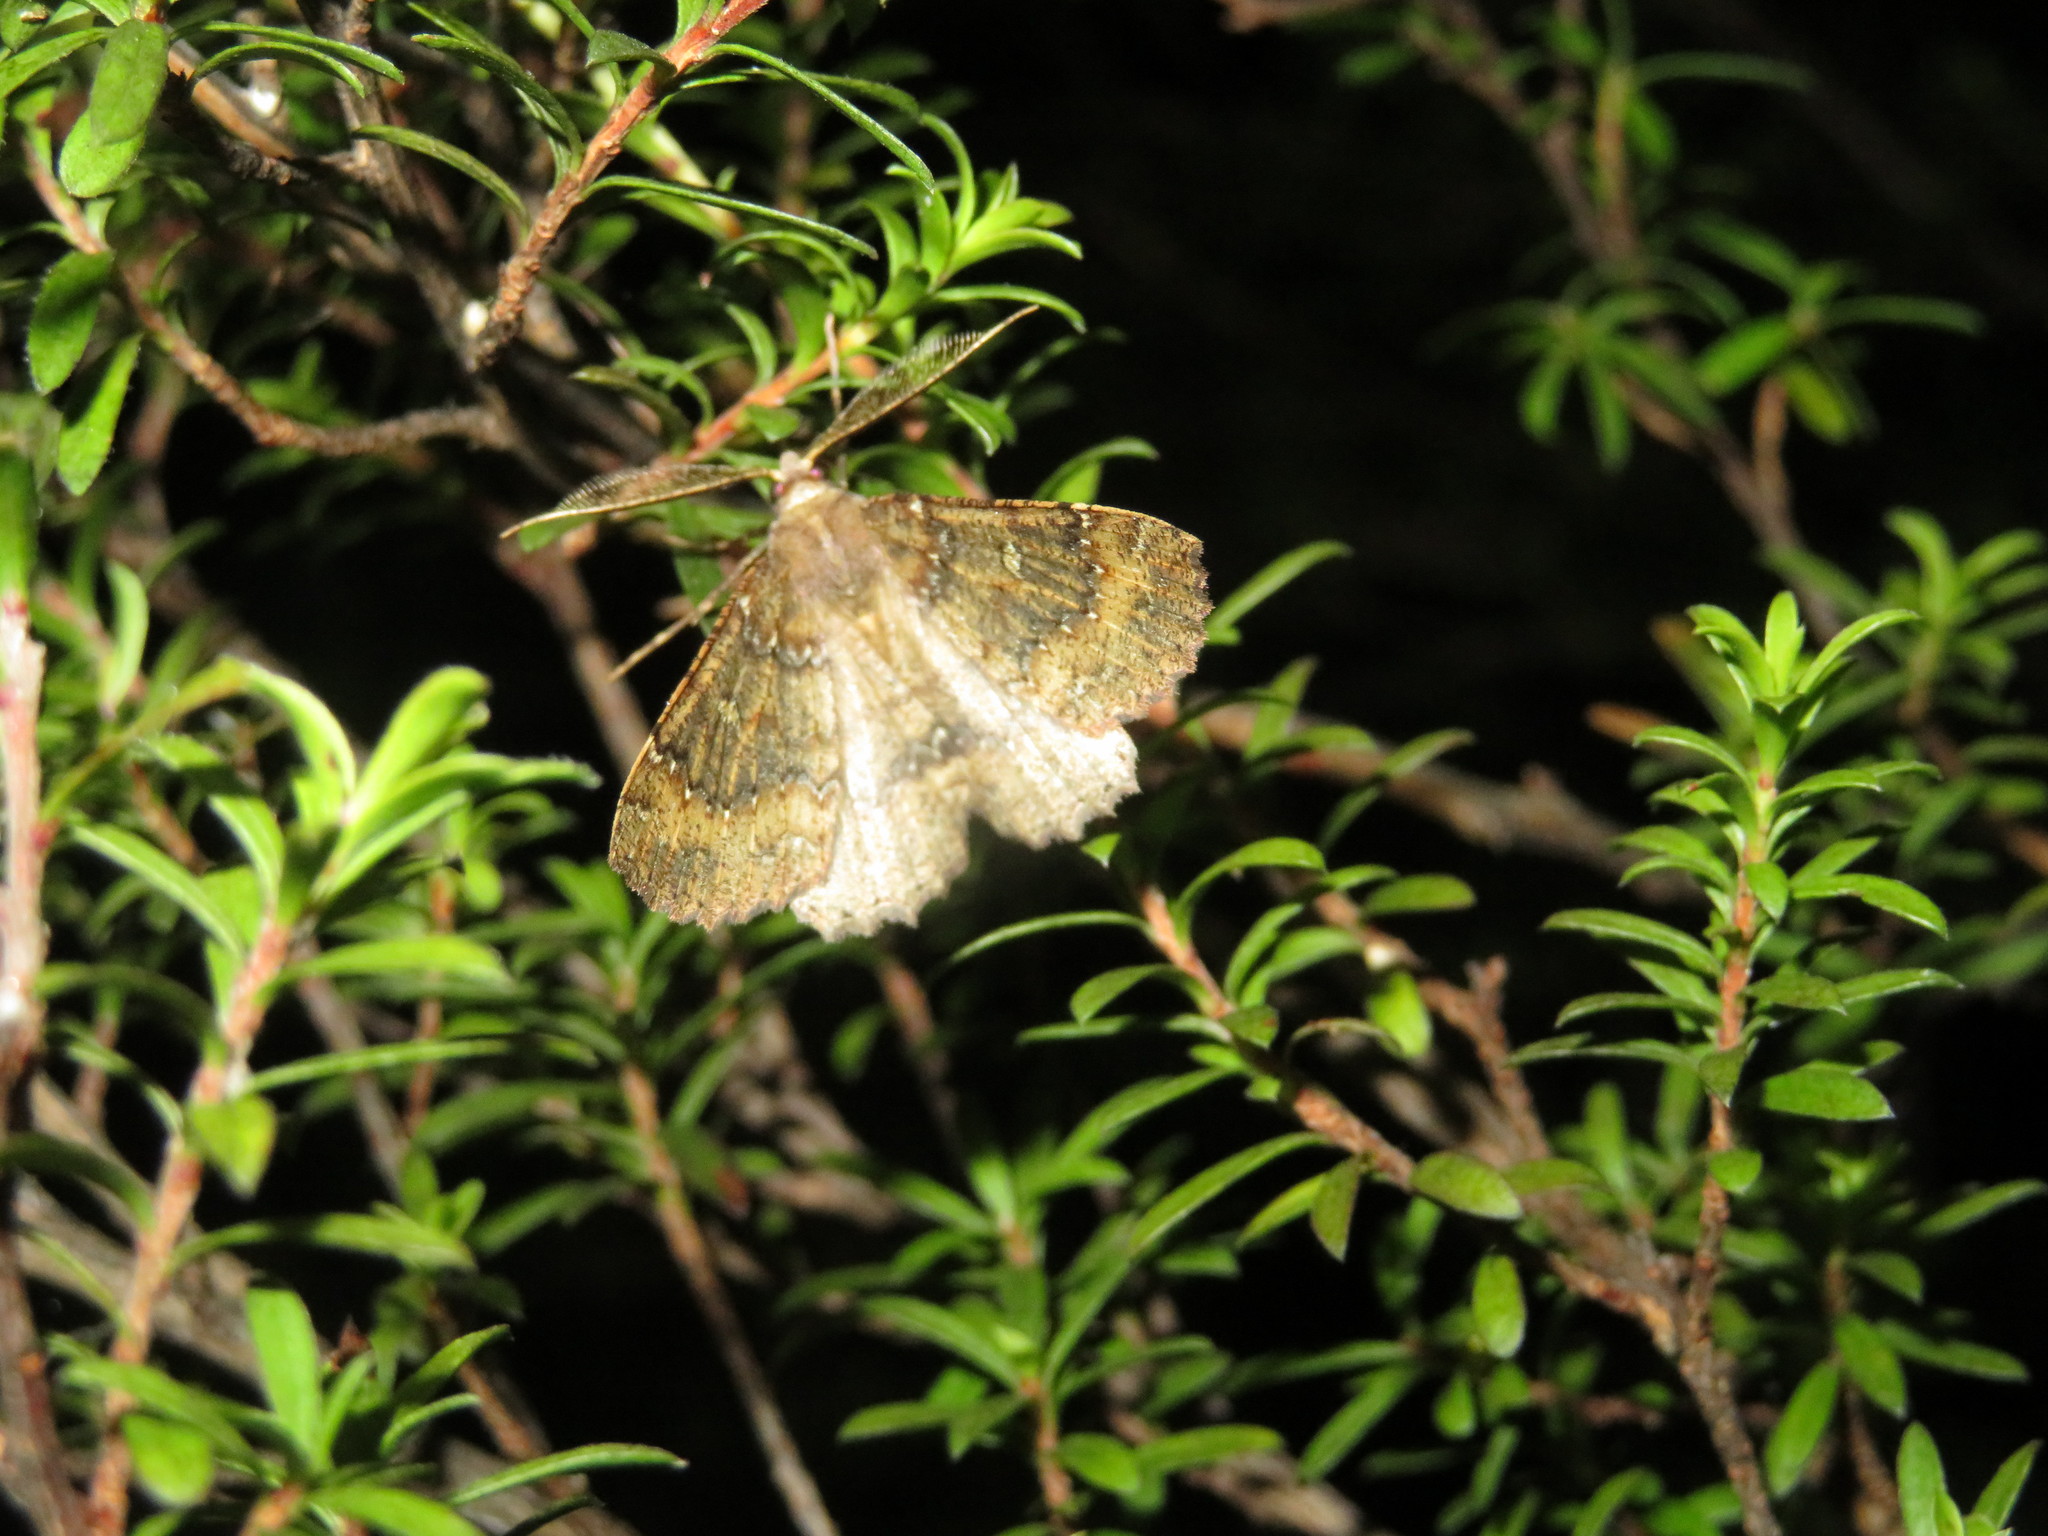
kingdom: Animalia
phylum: Arthropoda
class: Insecta
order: Lepidoptera
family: Geometridae
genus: Cleora
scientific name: Cleora scriptaria
